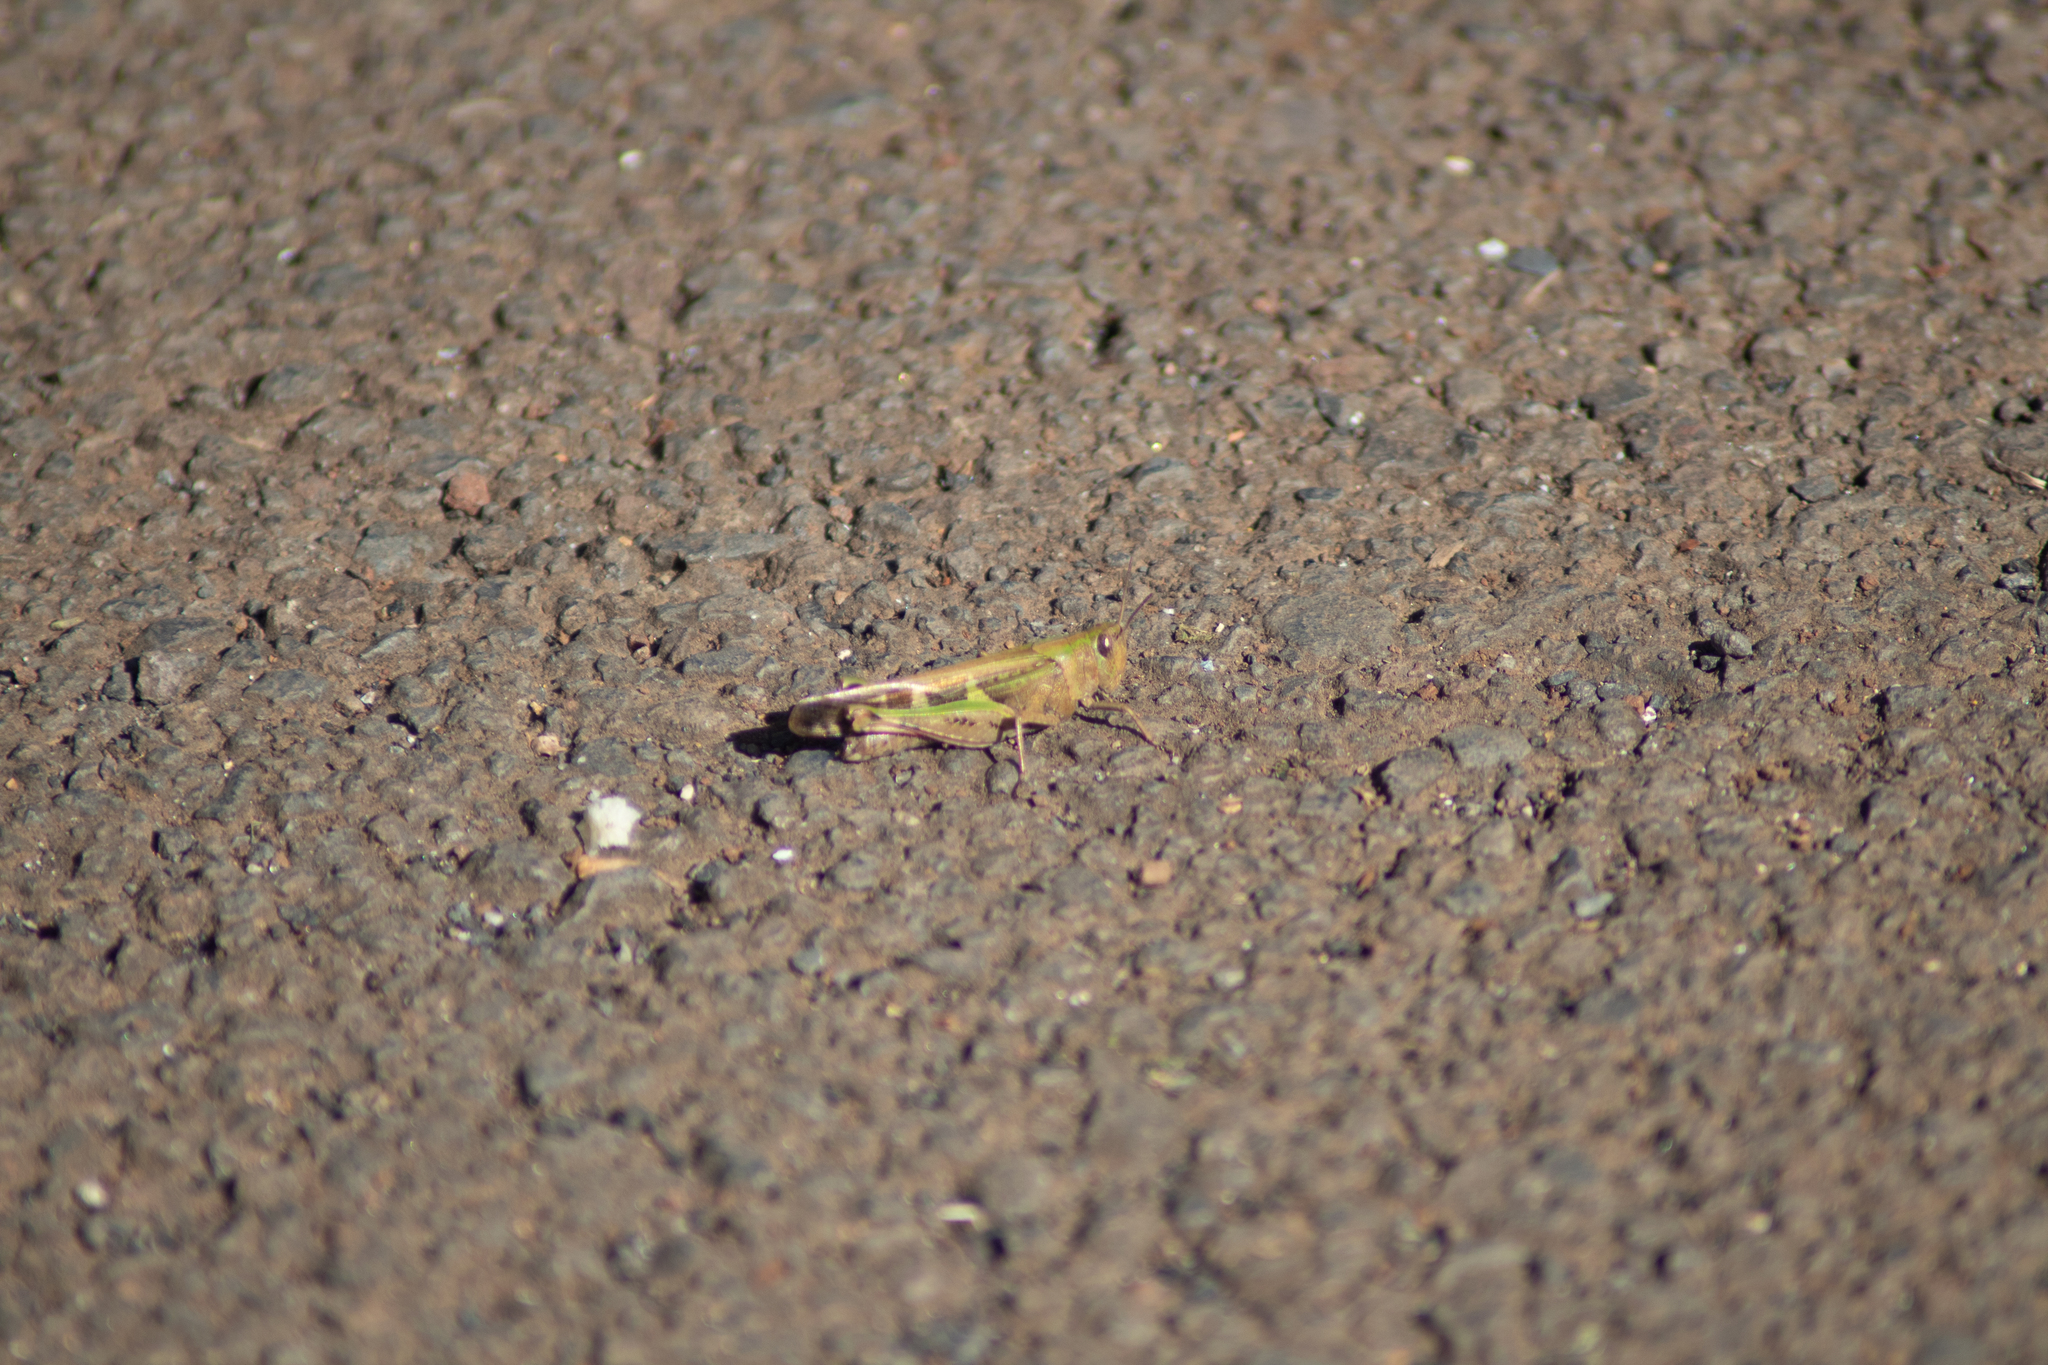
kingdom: Animalia
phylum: Arthropoda
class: Insecta
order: Orthoptera
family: Acrididae
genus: Aiolopus
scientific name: Aiolopus strepens
